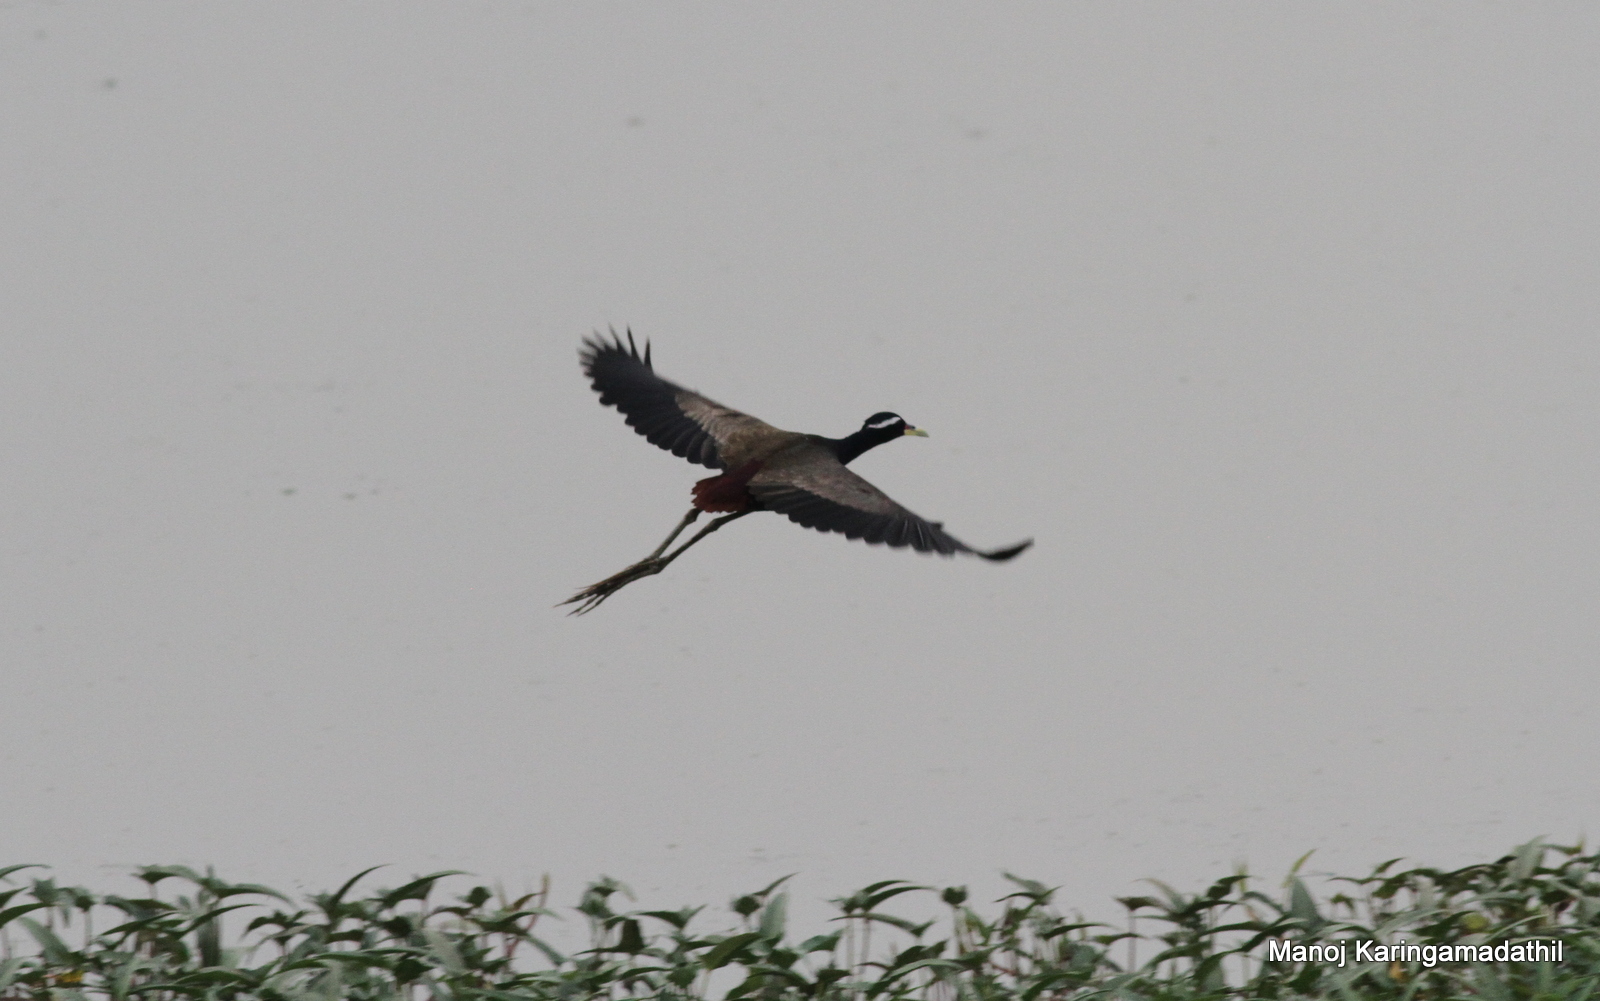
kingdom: Animalia
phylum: Chordata
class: Aves
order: Charadriiformes
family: Jacanidae
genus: Metopidius
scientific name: Metopidius indicus
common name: Bronze-winged jacana
